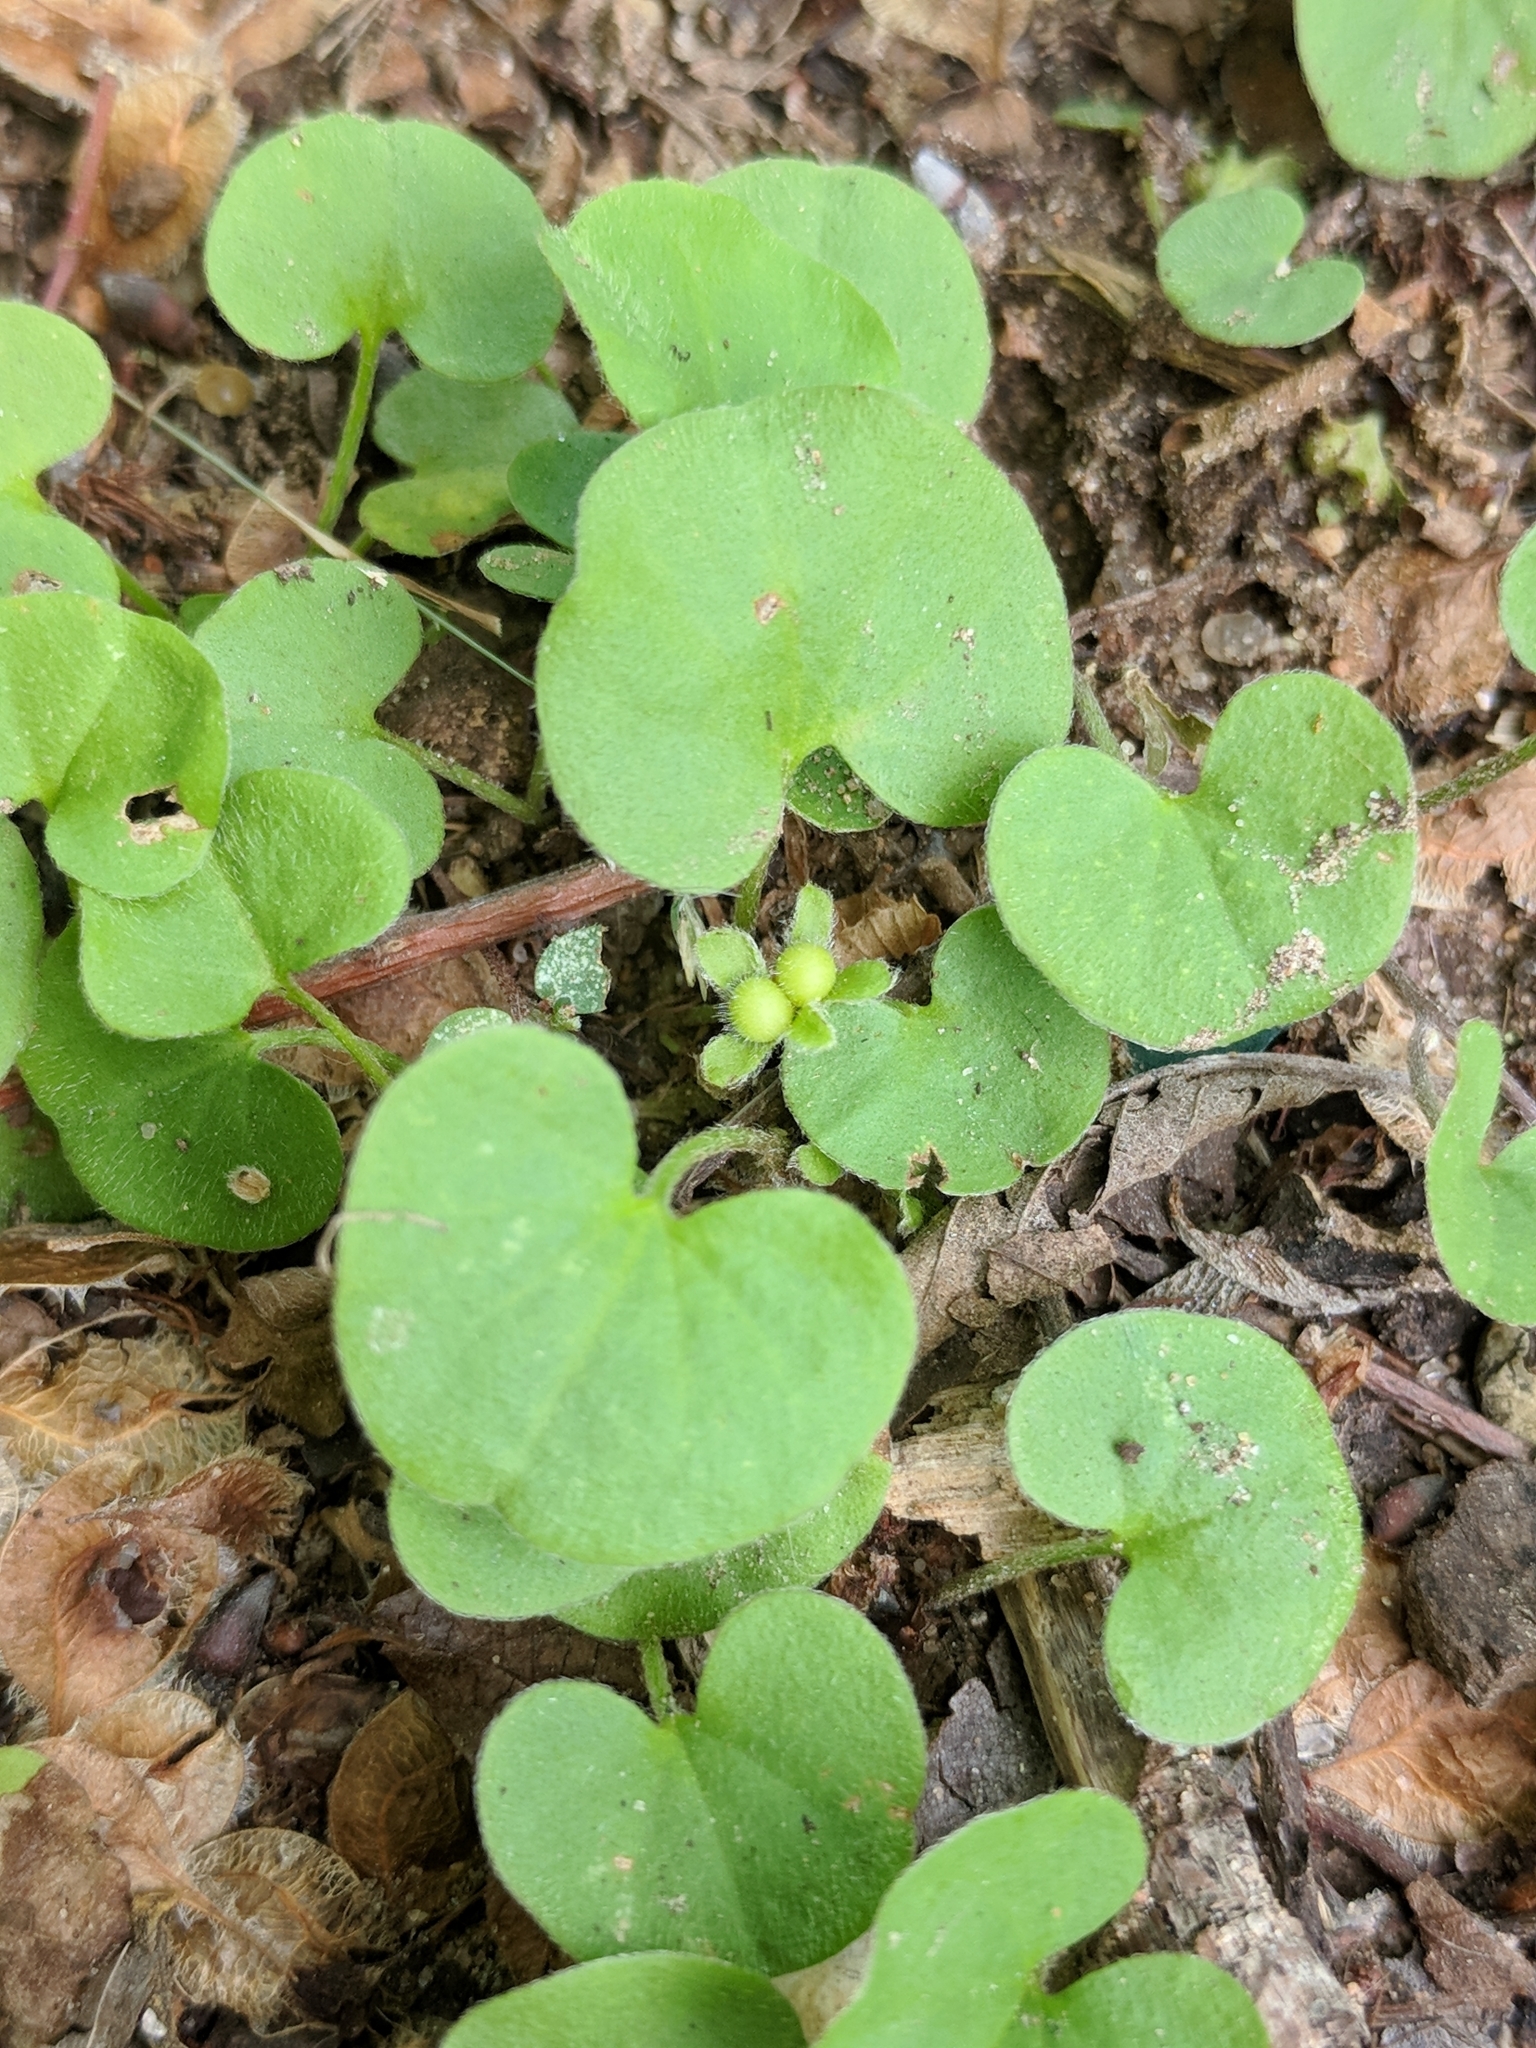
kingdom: Plantae
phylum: Tracheophyta
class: Magnoliopsida
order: Solanales
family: Convolvulaceae
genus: Dichondra
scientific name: Dichondra carolinensis
